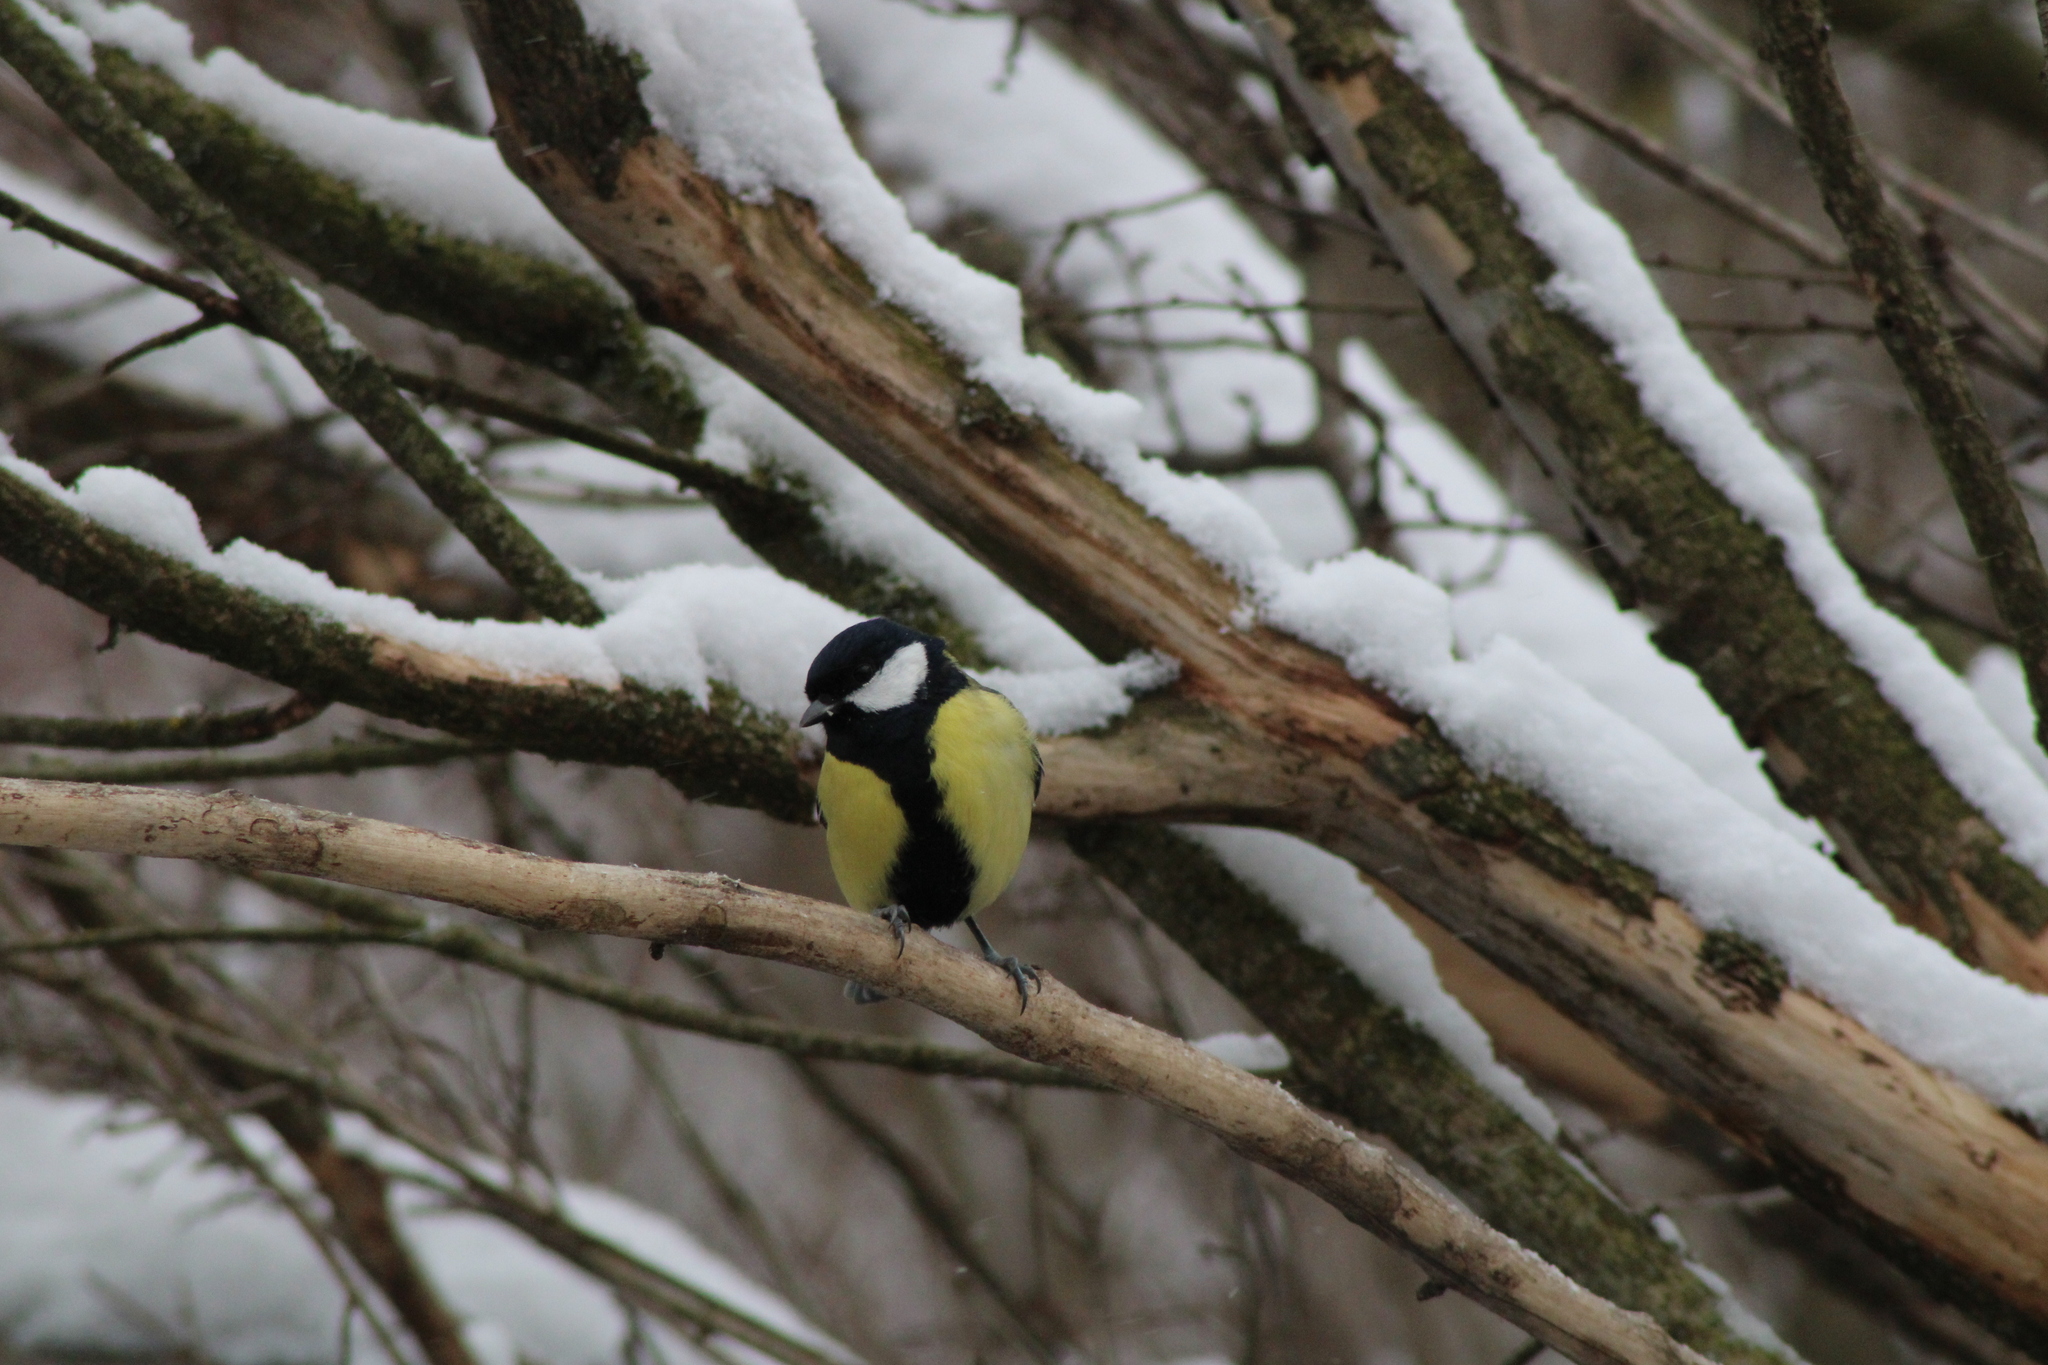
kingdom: Animalia
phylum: Chordata
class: Aves
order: Passeriformes
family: Paridae
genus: Parus
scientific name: Parus major
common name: Great tit
